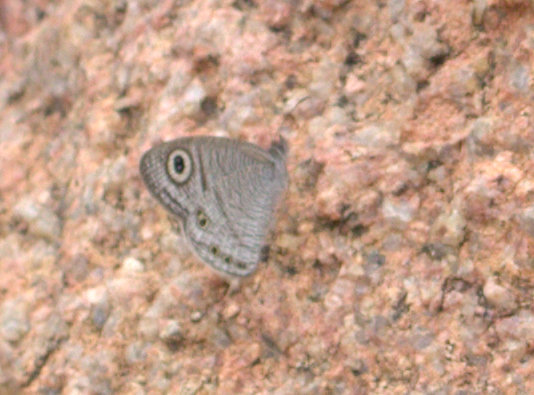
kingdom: Animalia
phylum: Arthropoda
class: Insecta
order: Lepidoptera
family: Nymphalidae
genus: Ypthima
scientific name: Ypthima avanta
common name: Jewel five-ring
